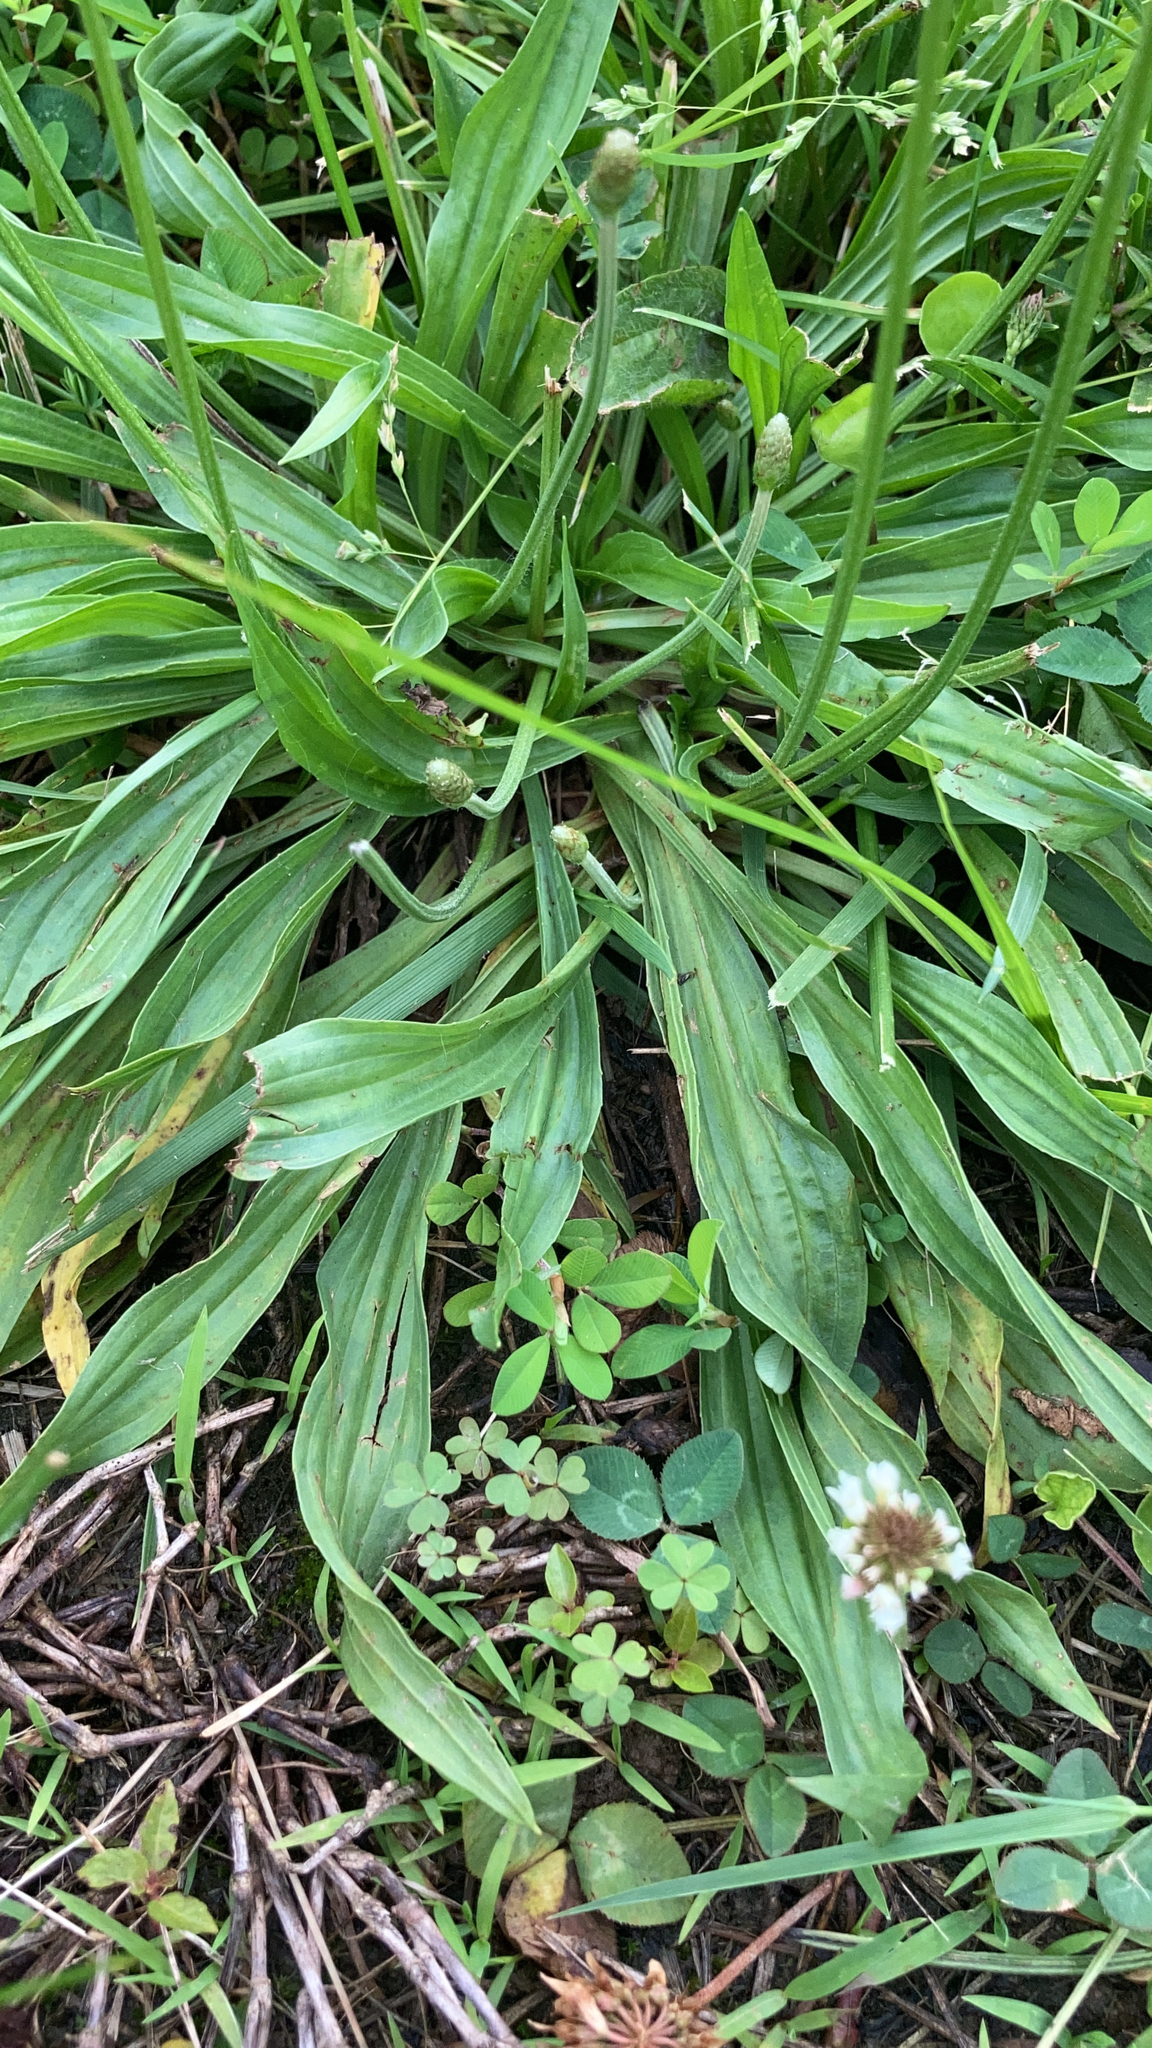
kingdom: Plantae
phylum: Tracheophyta
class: Magnoliopsida
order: Lamiales
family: Plantaginaceae
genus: Plantago
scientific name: Plantago lanceolata
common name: Ribwort plantain
